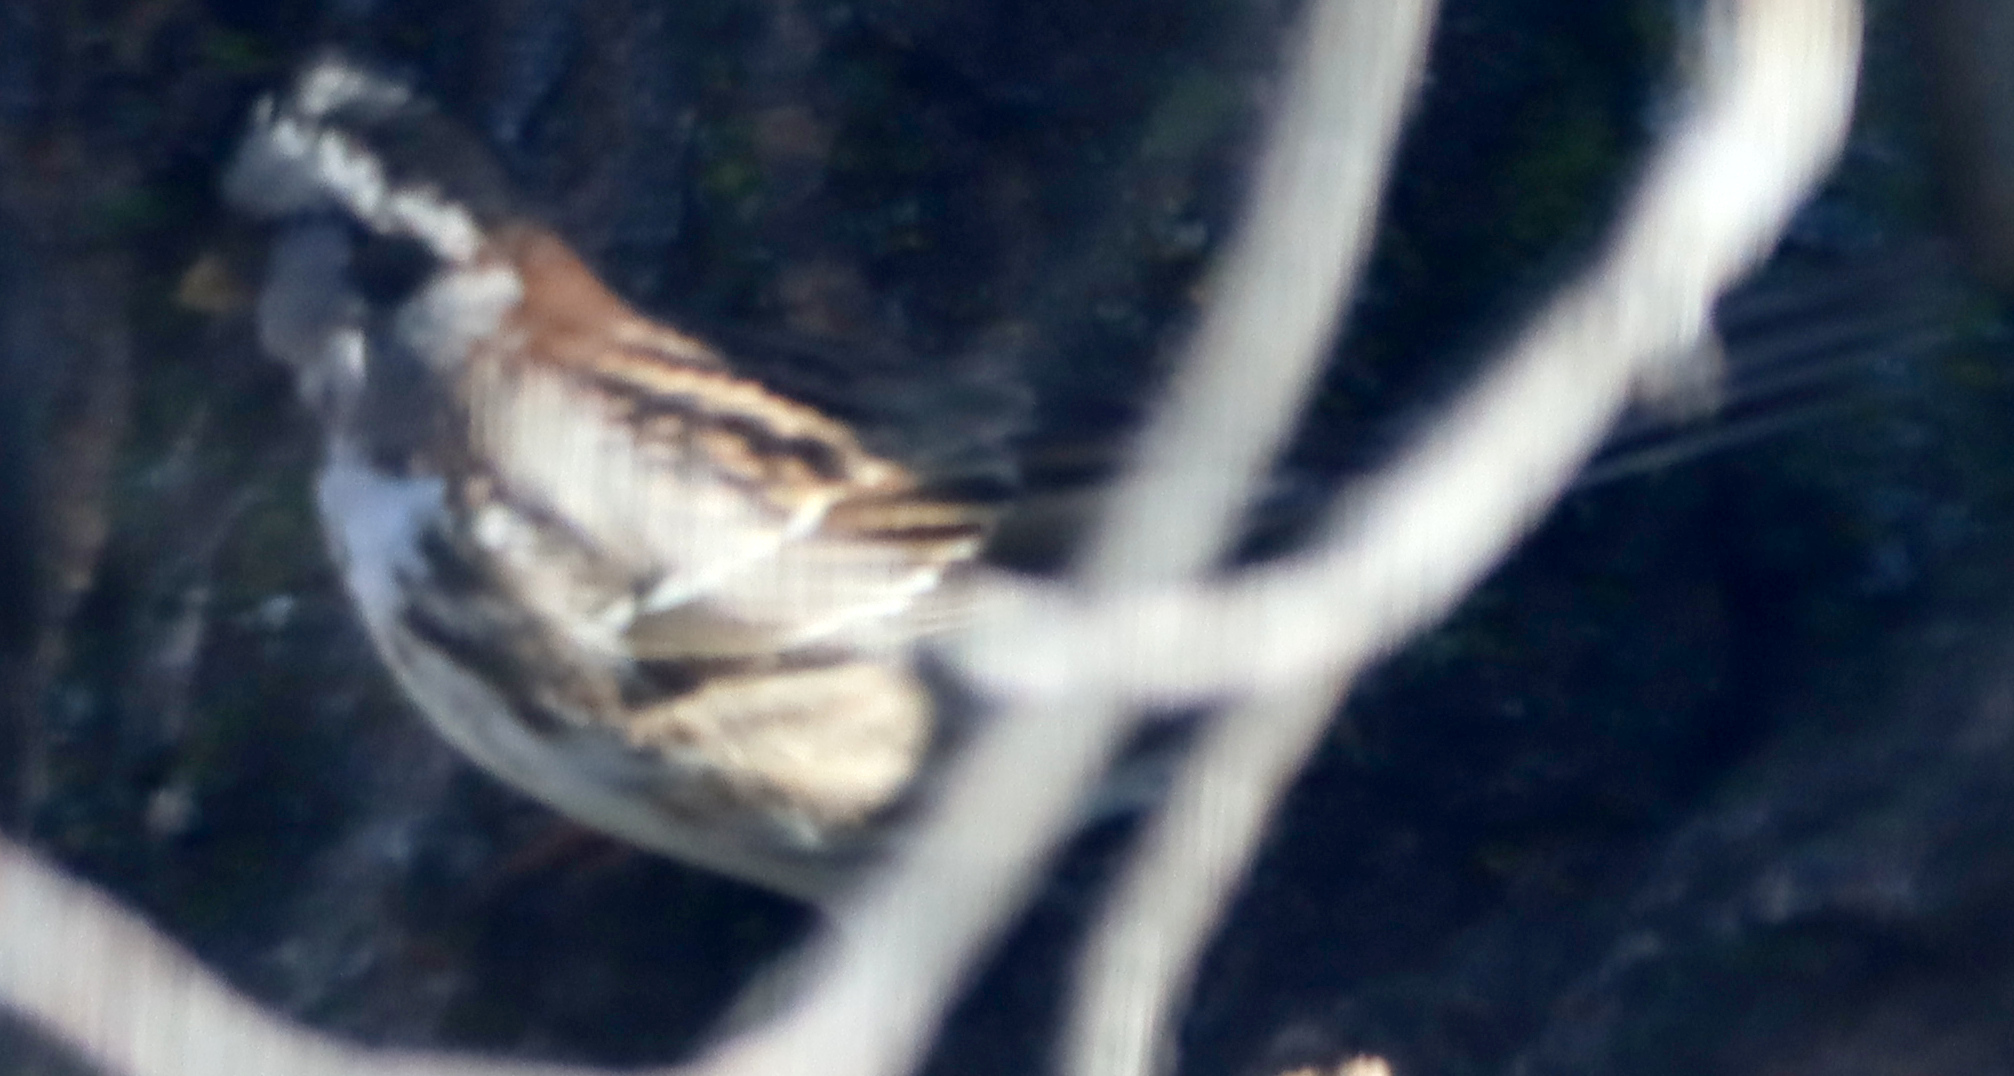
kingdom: Animalia
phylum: Chordata
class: Aves
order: Passeriformes
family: Passerellidae
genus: Zonotrichia
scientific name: Zonotrichia querula
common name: Harris's sparrow
